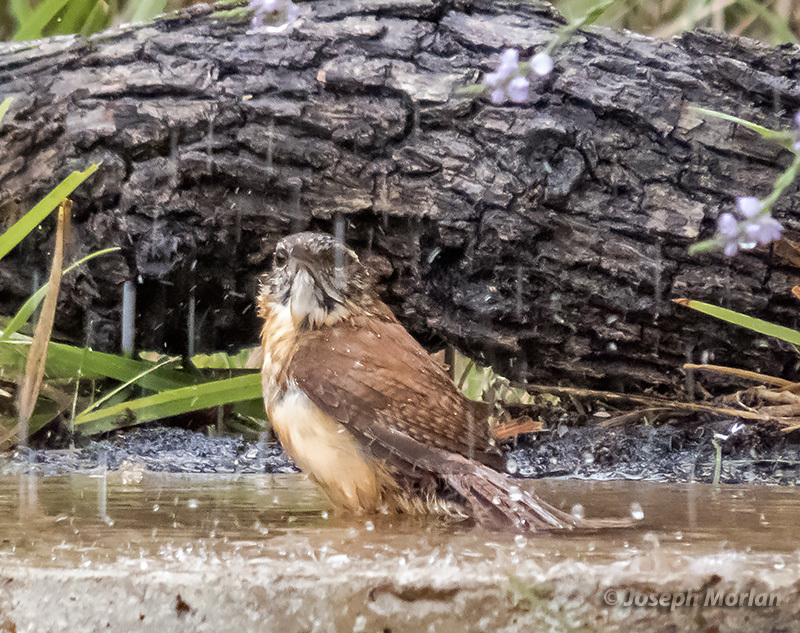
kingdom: Animalia
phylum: Chordata
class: Aves
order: Passeriformes
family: Troglodytidae
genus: Thryothorus
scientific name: Thryothorus ludovicianus
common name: Carolina wren
